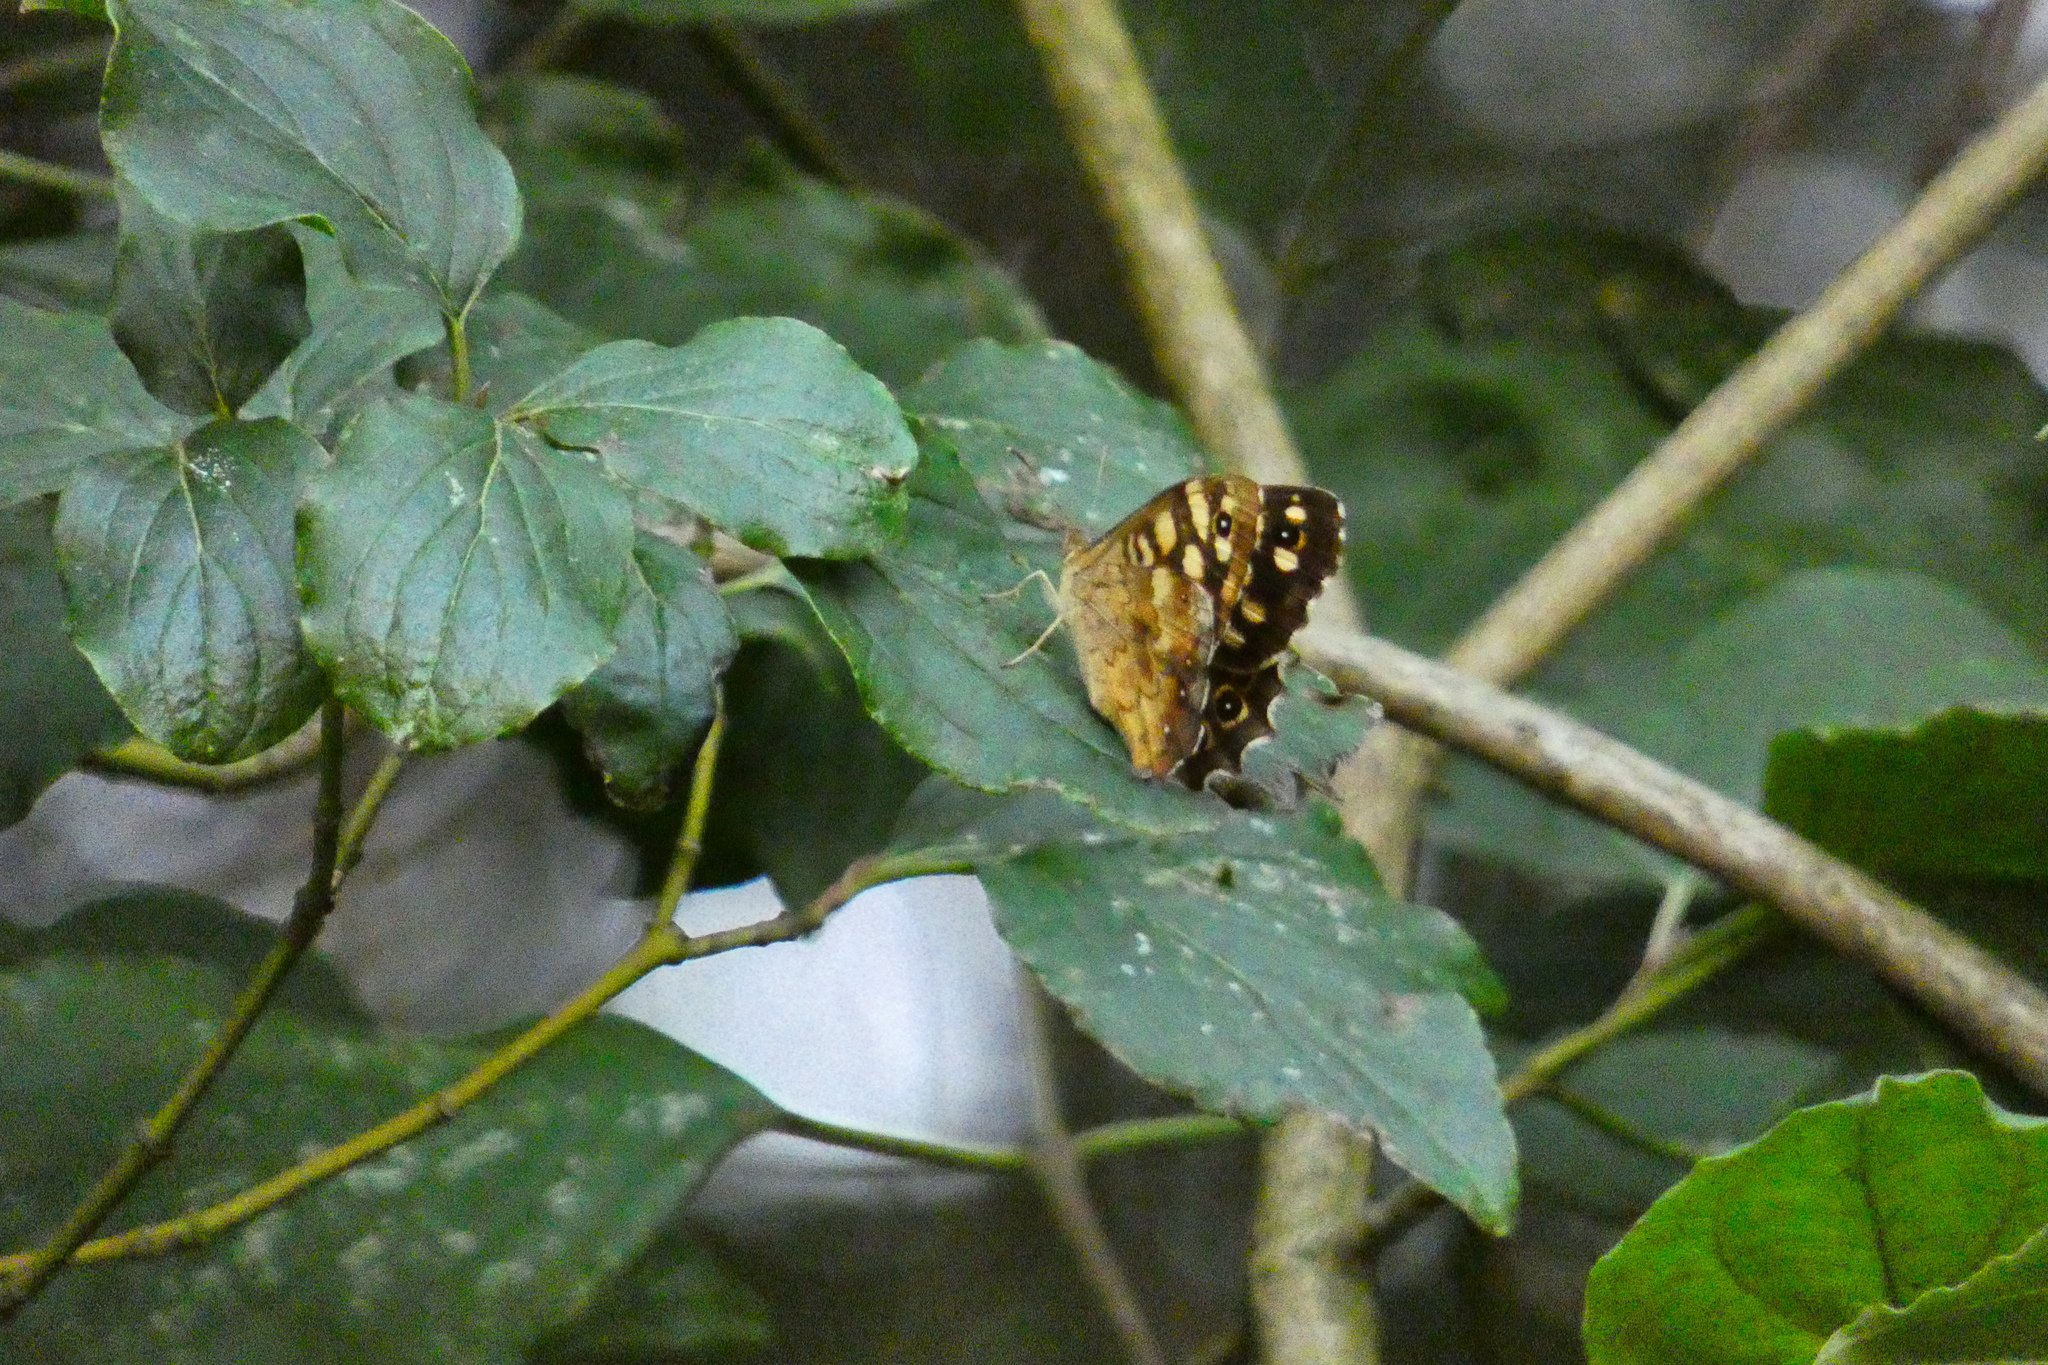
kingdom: Animalia
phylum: Arthropoda
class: Insecta
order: Lepidoptera
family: Nymphalidae
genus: Pararge
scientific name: Pararge aegeria
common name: Speckled wood
